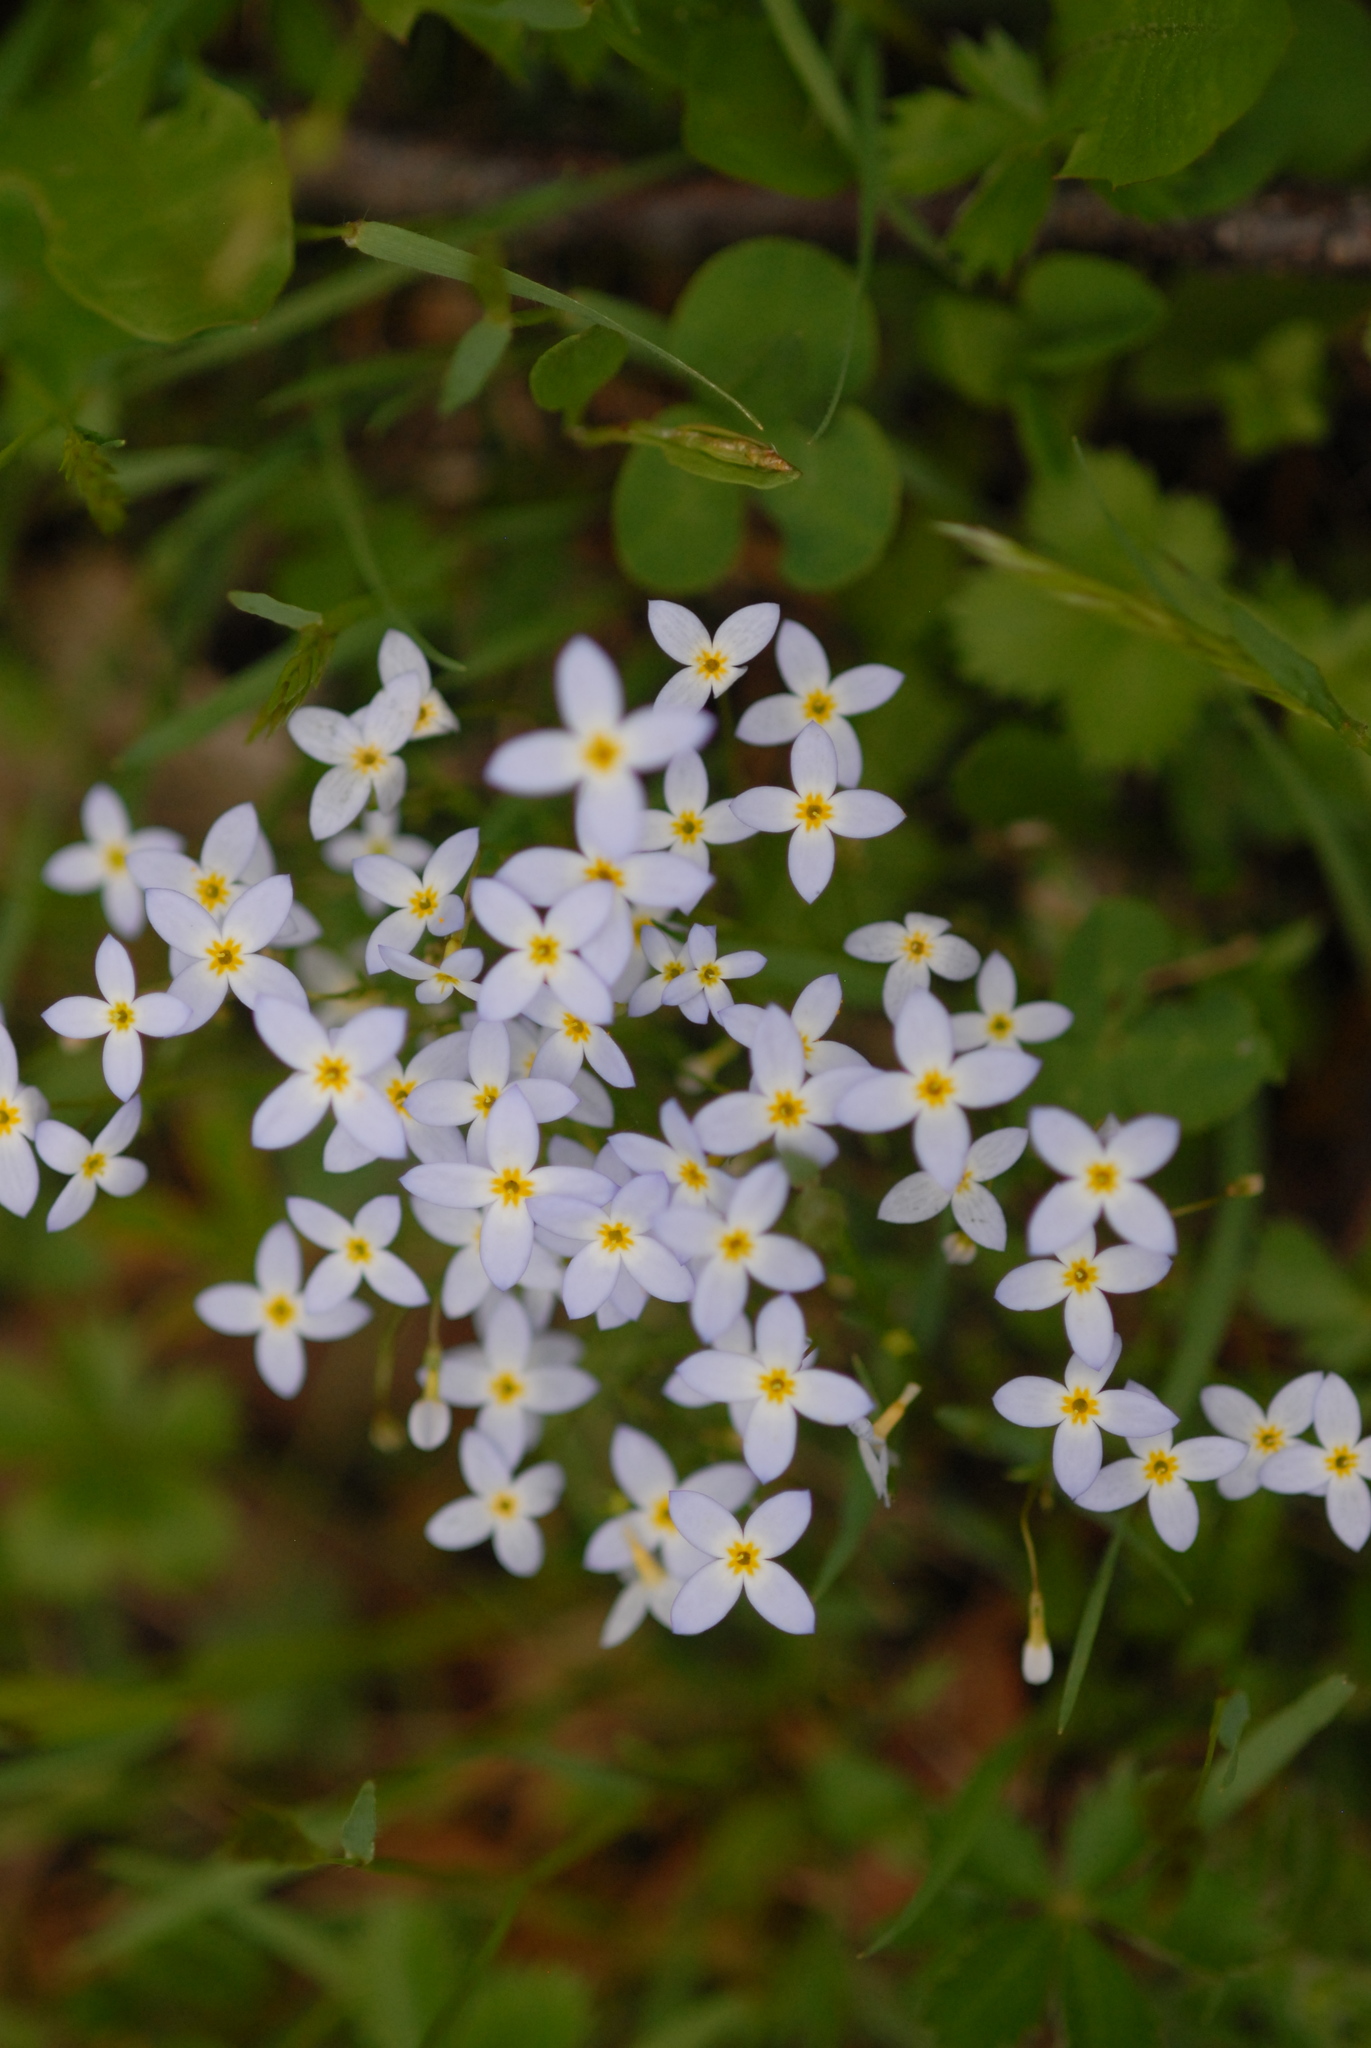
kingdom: Plantae
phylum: Tracheophyta
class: Magnoliopsida
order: Gentianales
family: Rubiaceae
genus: Houstonia
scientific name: Houstonia caerulea
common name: Bluets
